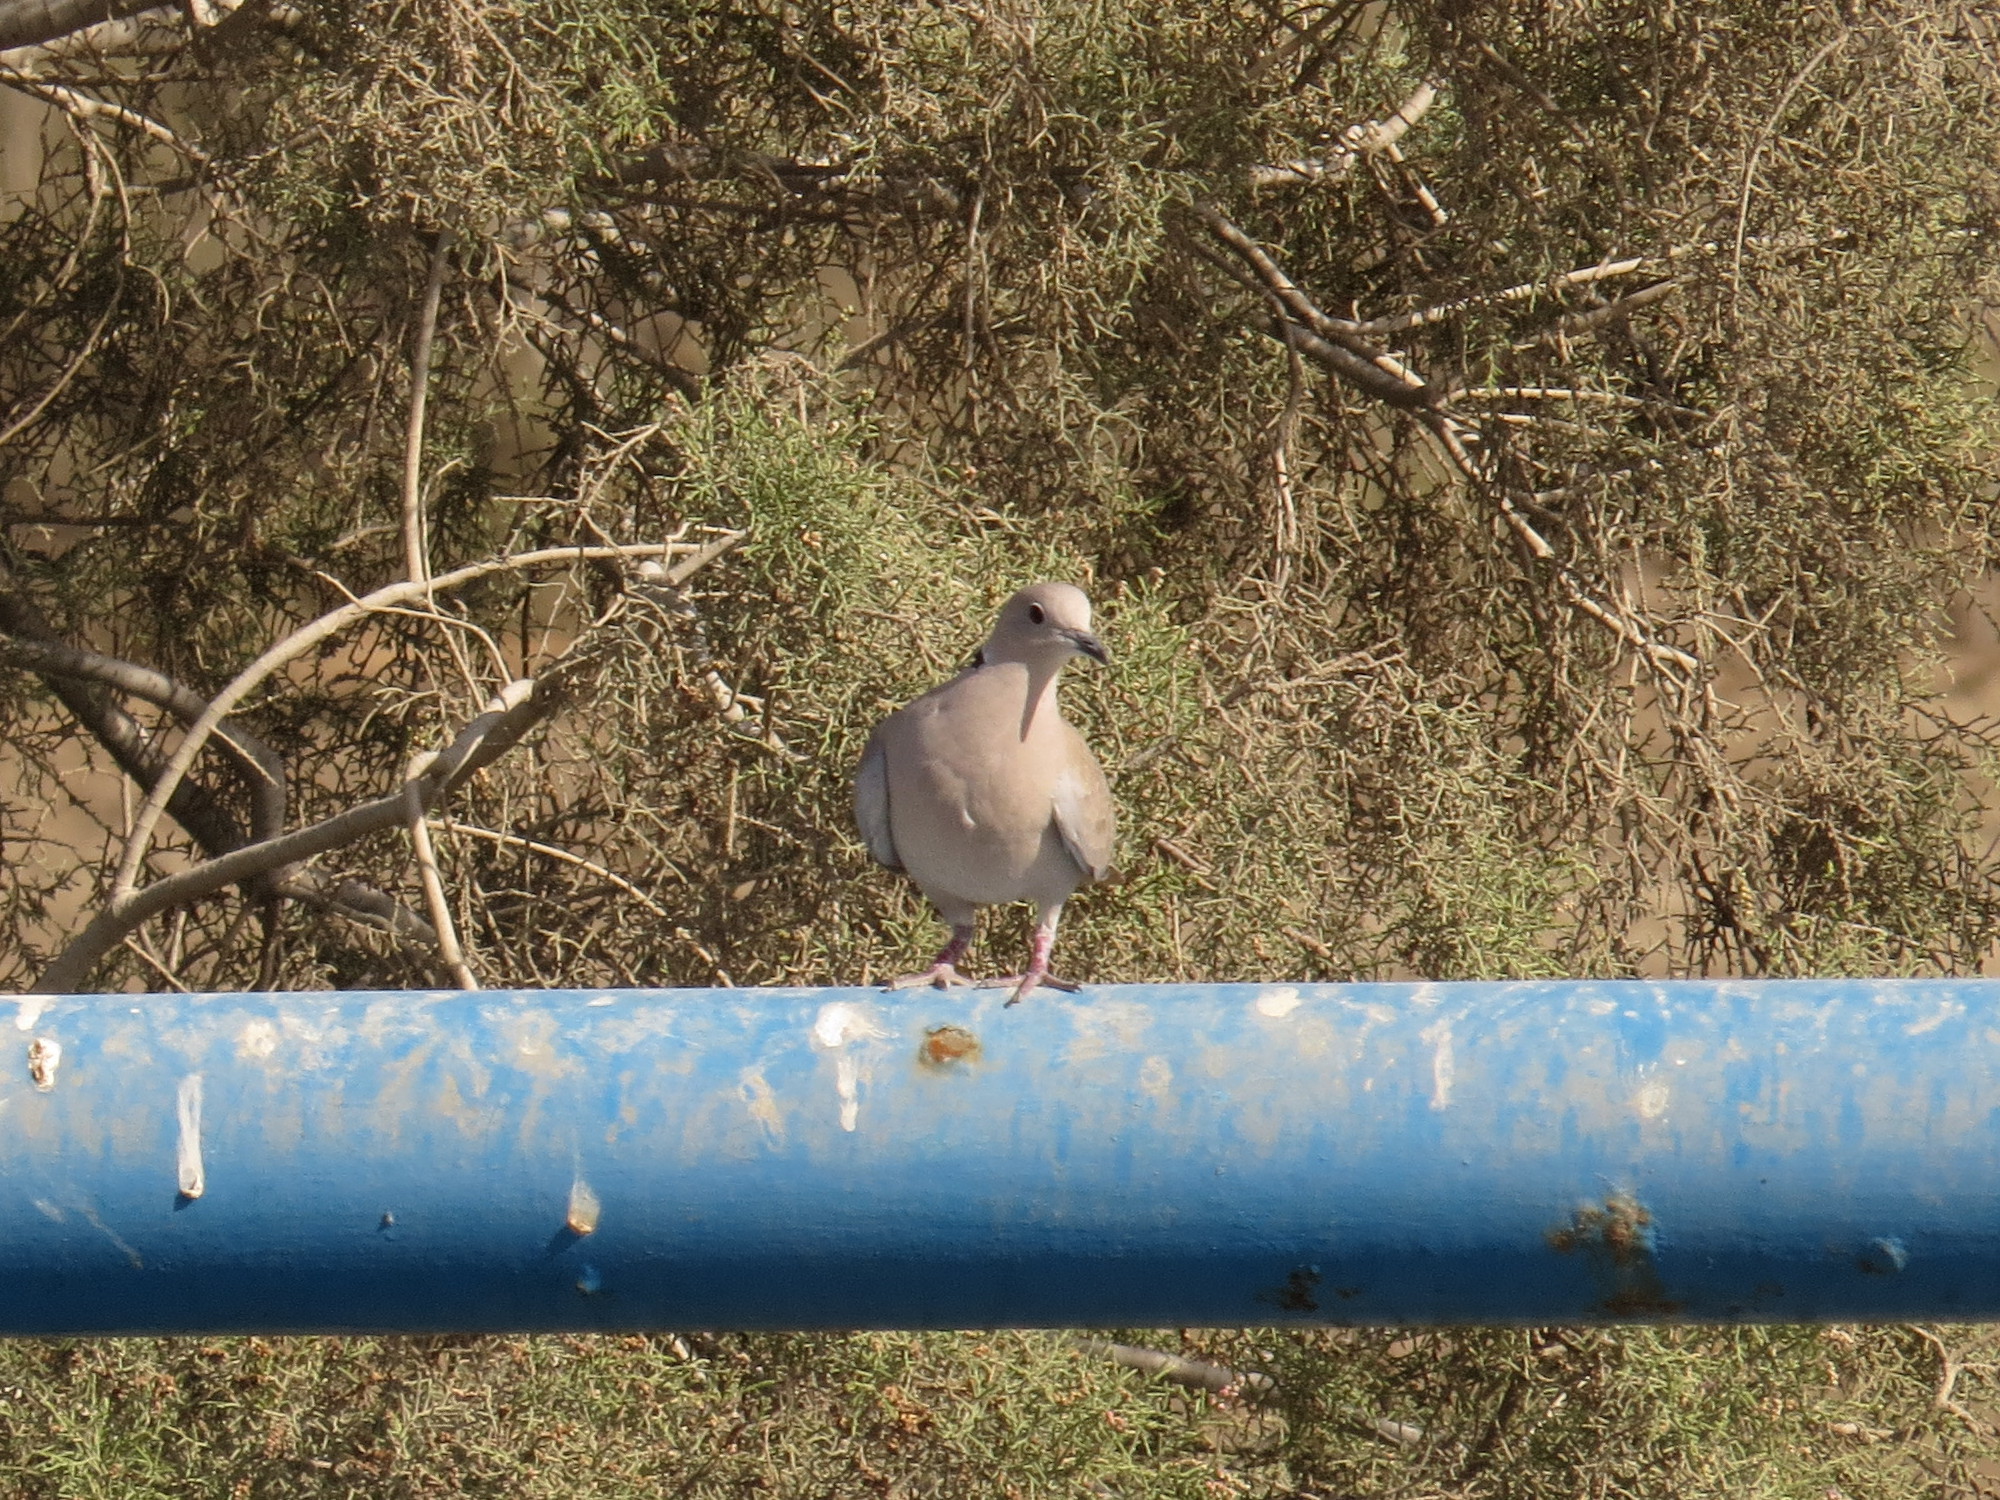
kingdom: Animalia
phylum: Chordata
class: Aves
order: Columbiformes
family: Columbidae
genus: Streptopelia
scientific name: Streptopelia decaocto
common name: Eurasian collared dove
